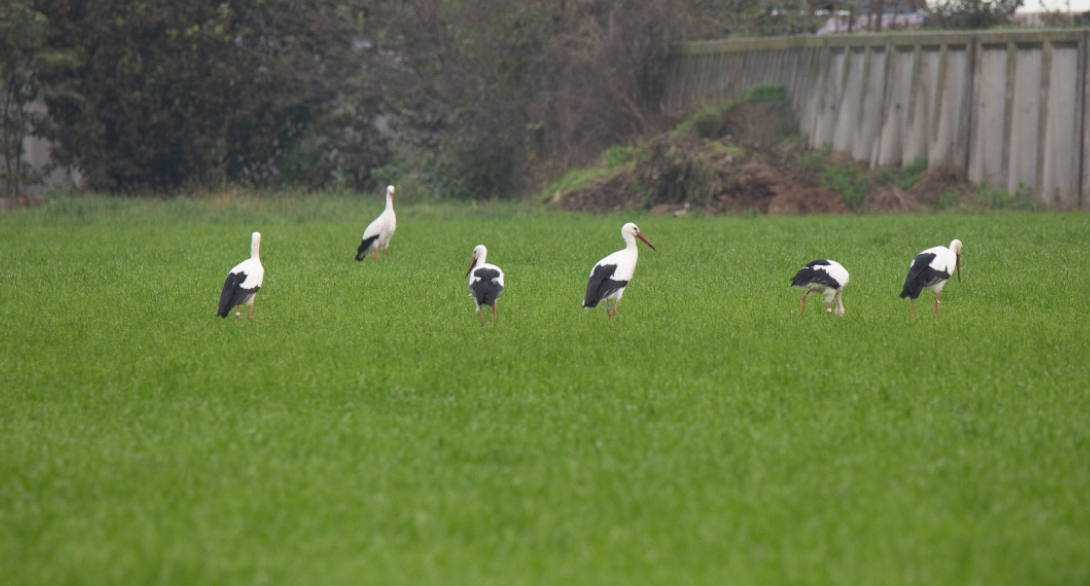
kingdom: Animalia
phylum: Chordata
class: Aves
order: Ciconiiformes
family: Ciconiidae
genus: Ciconia
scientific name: Ciconia ciconia
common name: White stork
